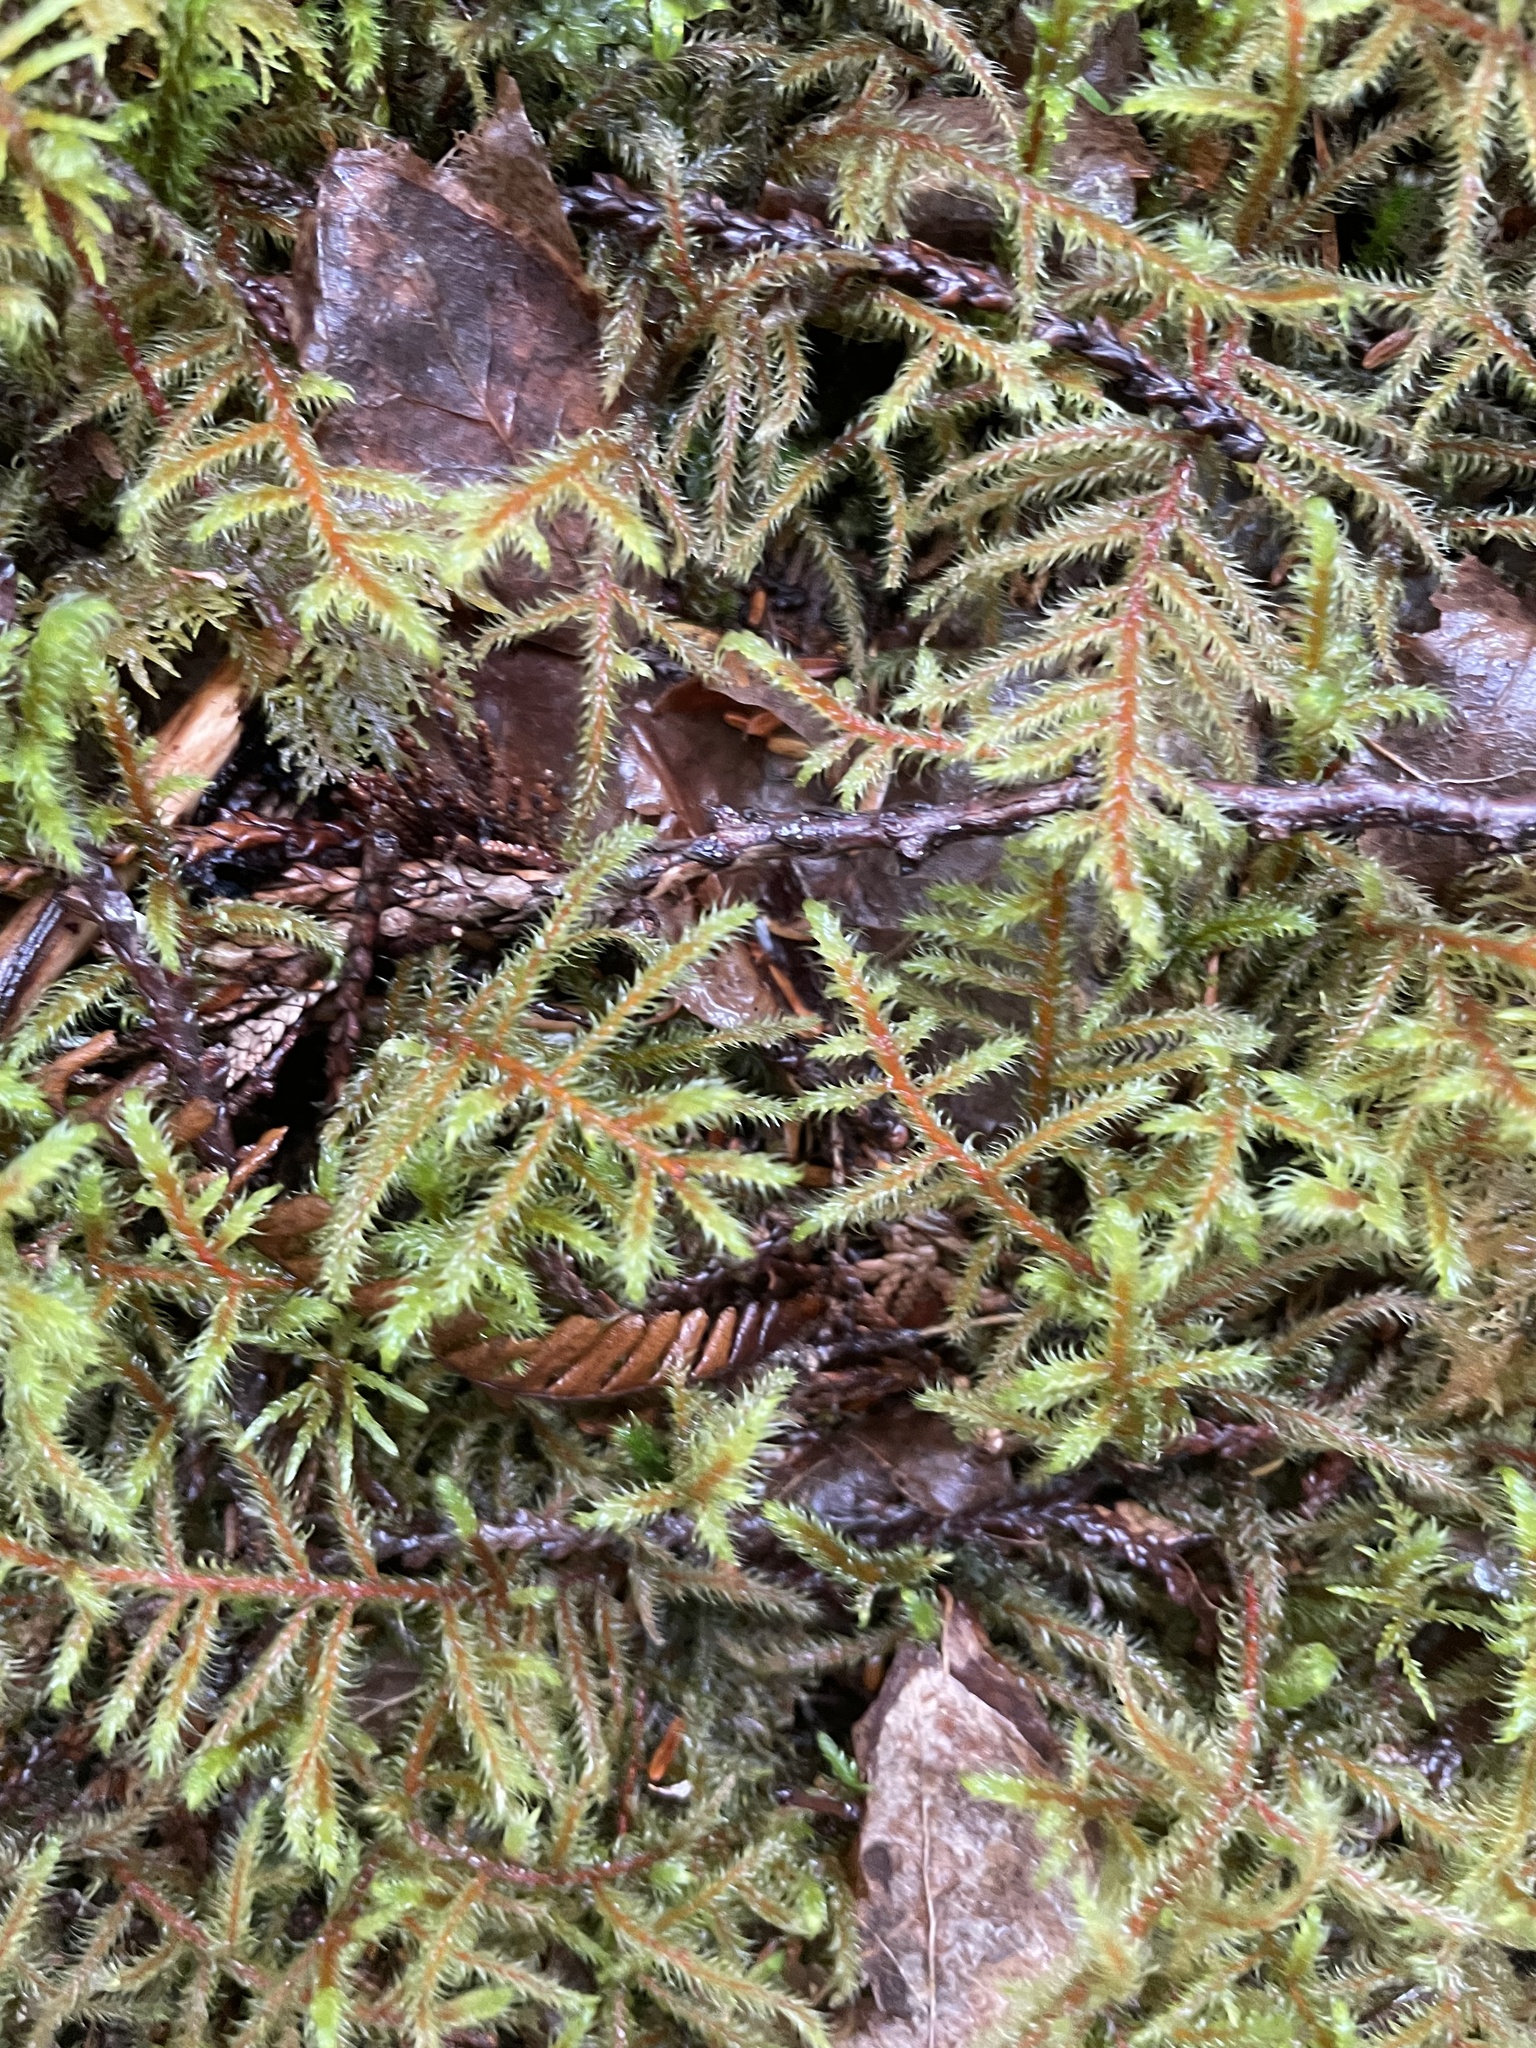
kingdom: Plantae
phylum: Bryophyta
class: Bryopsida
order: Hypnales
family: Hylocomiaceae
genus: Hylocomium
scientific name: Hylocomium splendens
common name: Stairstep moss
